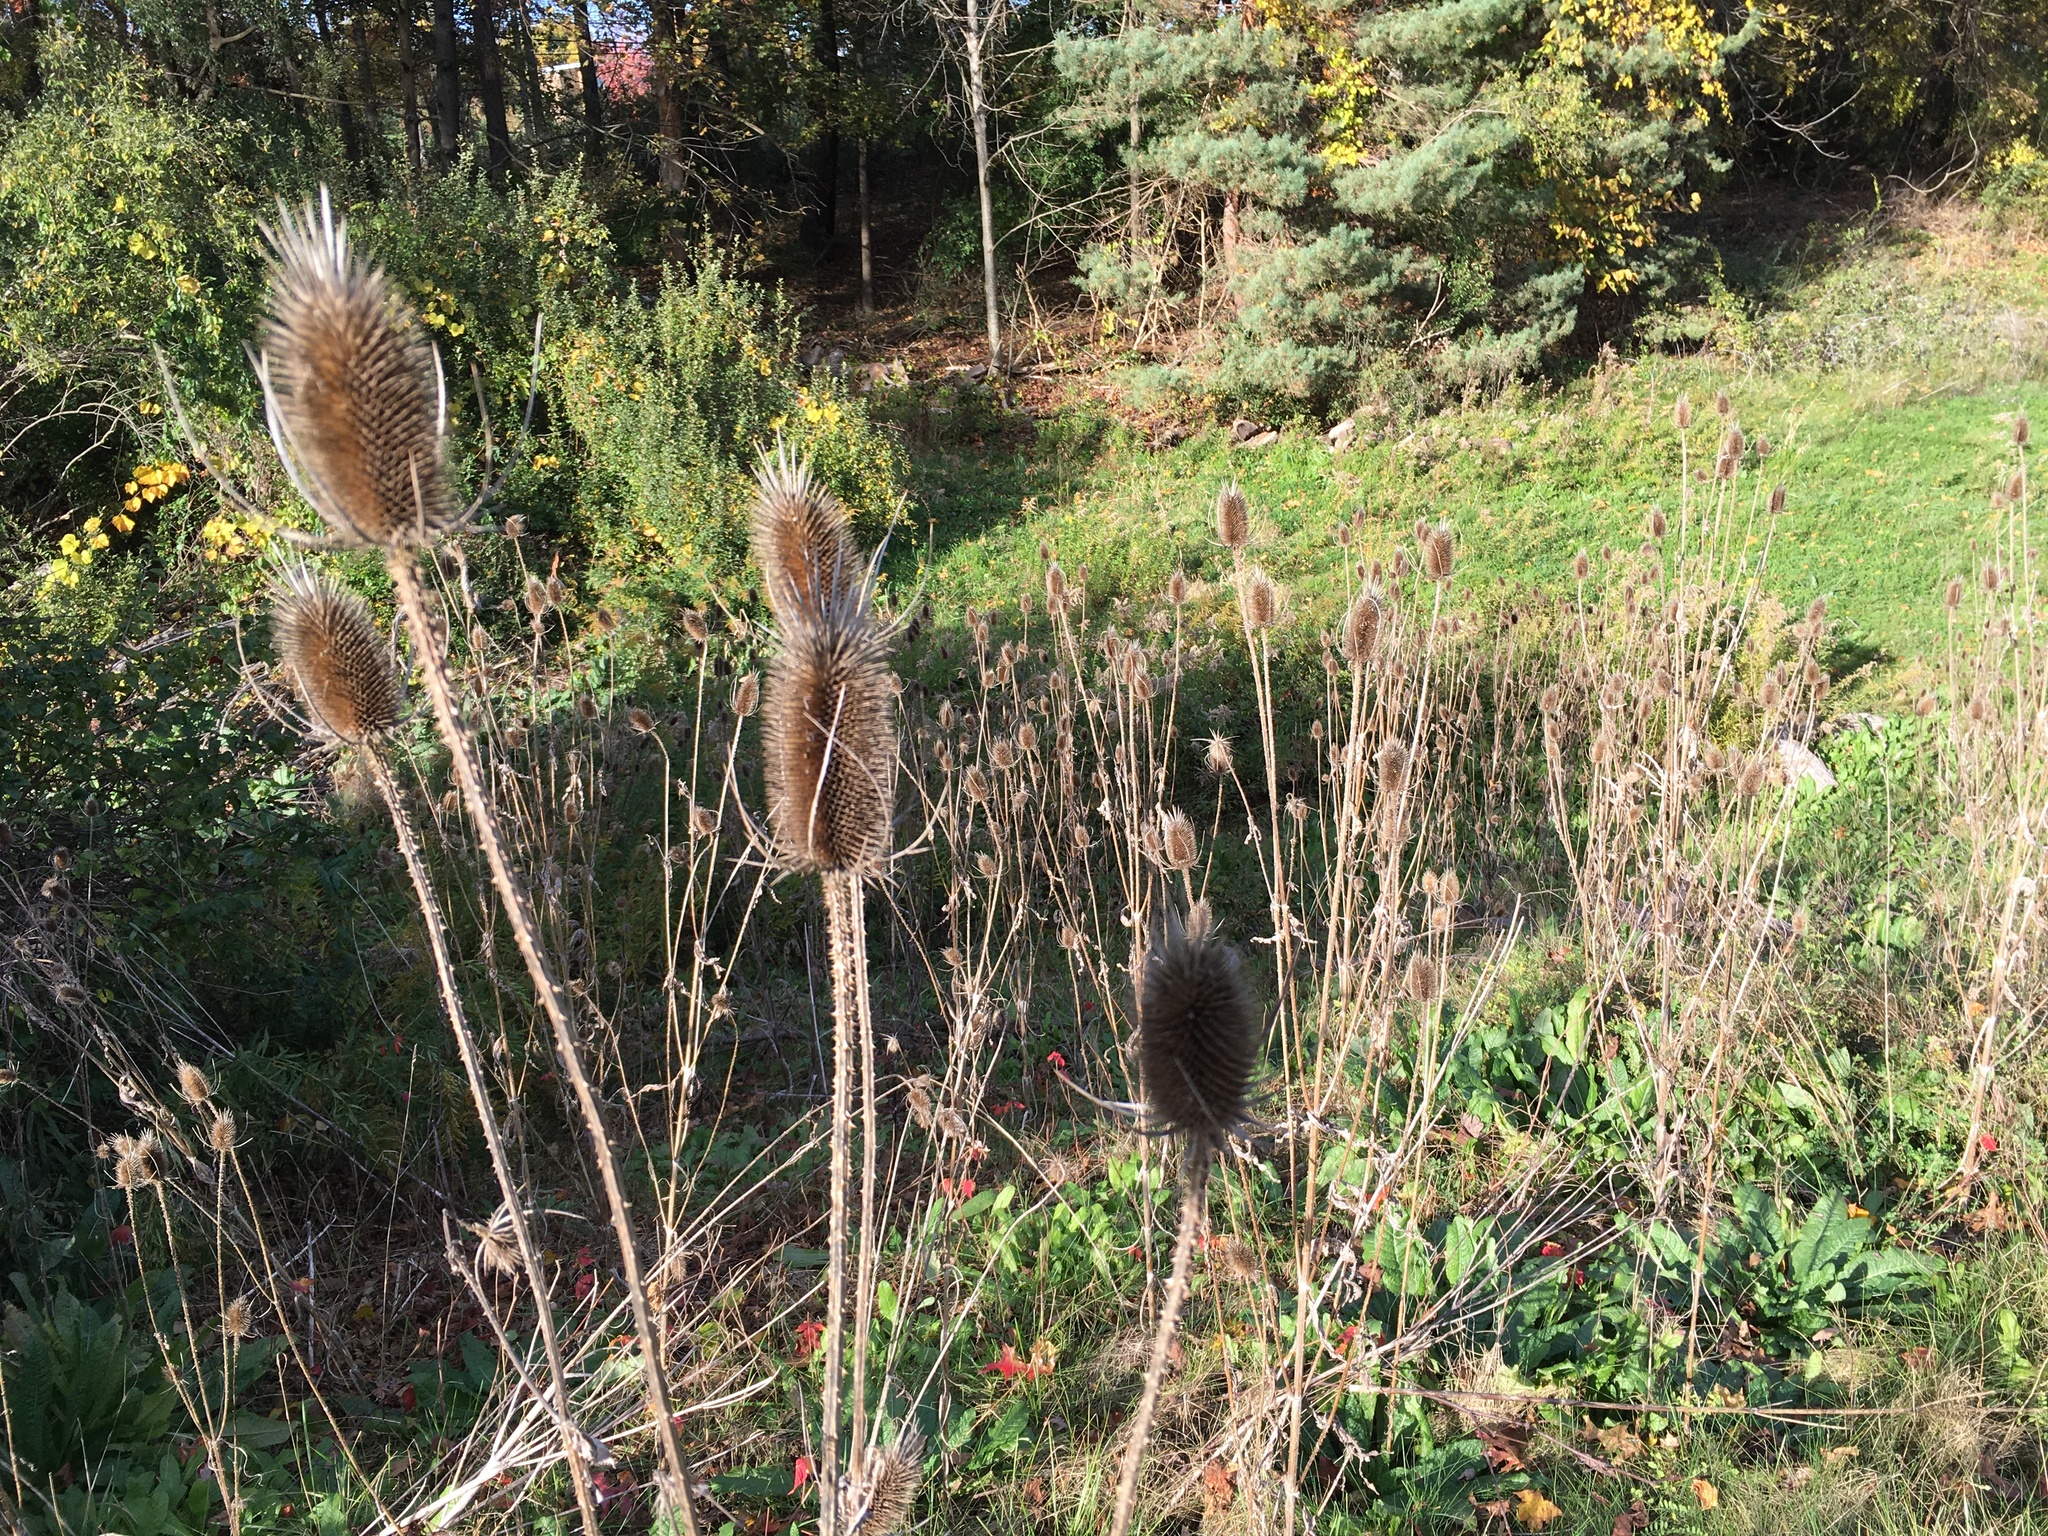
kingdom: Plantae
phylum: Tracheophyta
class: Magnoliopsida
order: Dipsacales
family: Caprifoliaceae
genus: Dipsacus
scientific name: Dipsacus fullonum
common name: Teasel
